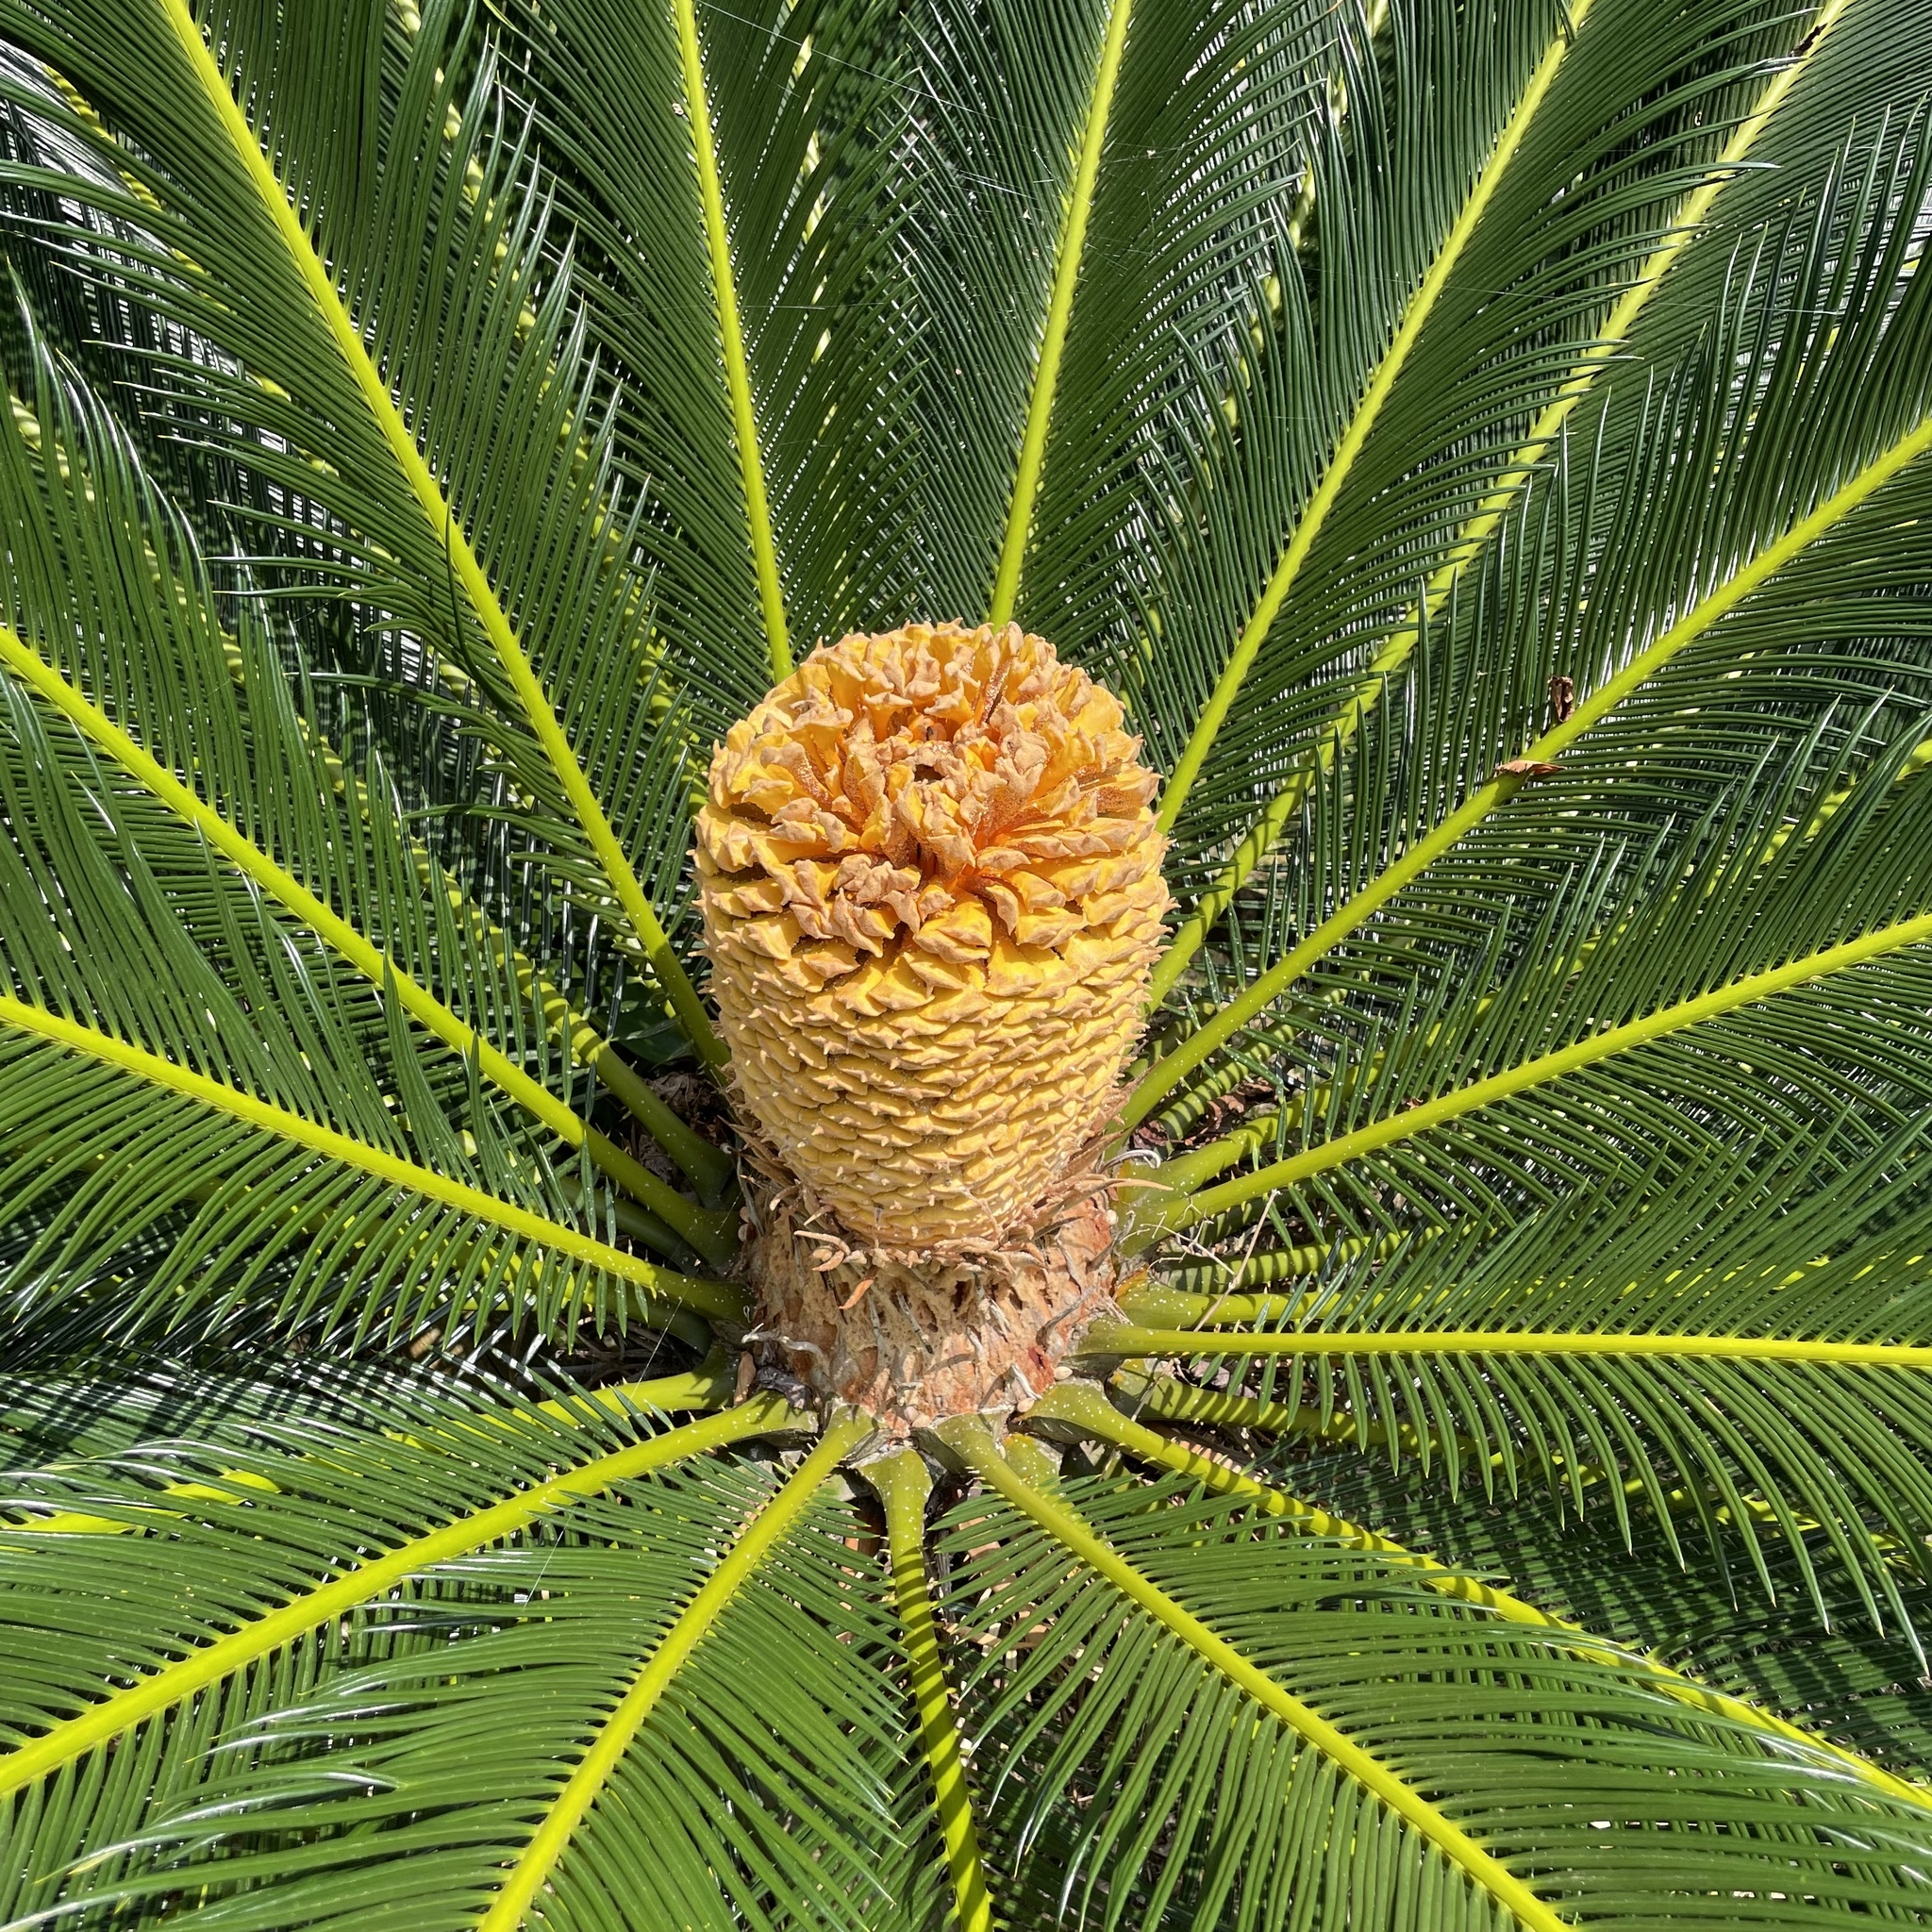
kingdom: Plantae
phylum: Tracheophyta
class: Cycadopsida
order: Cycadales
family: Cycadaceae
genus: Cycas
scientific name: Cycas revoluta
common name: Sago palm
